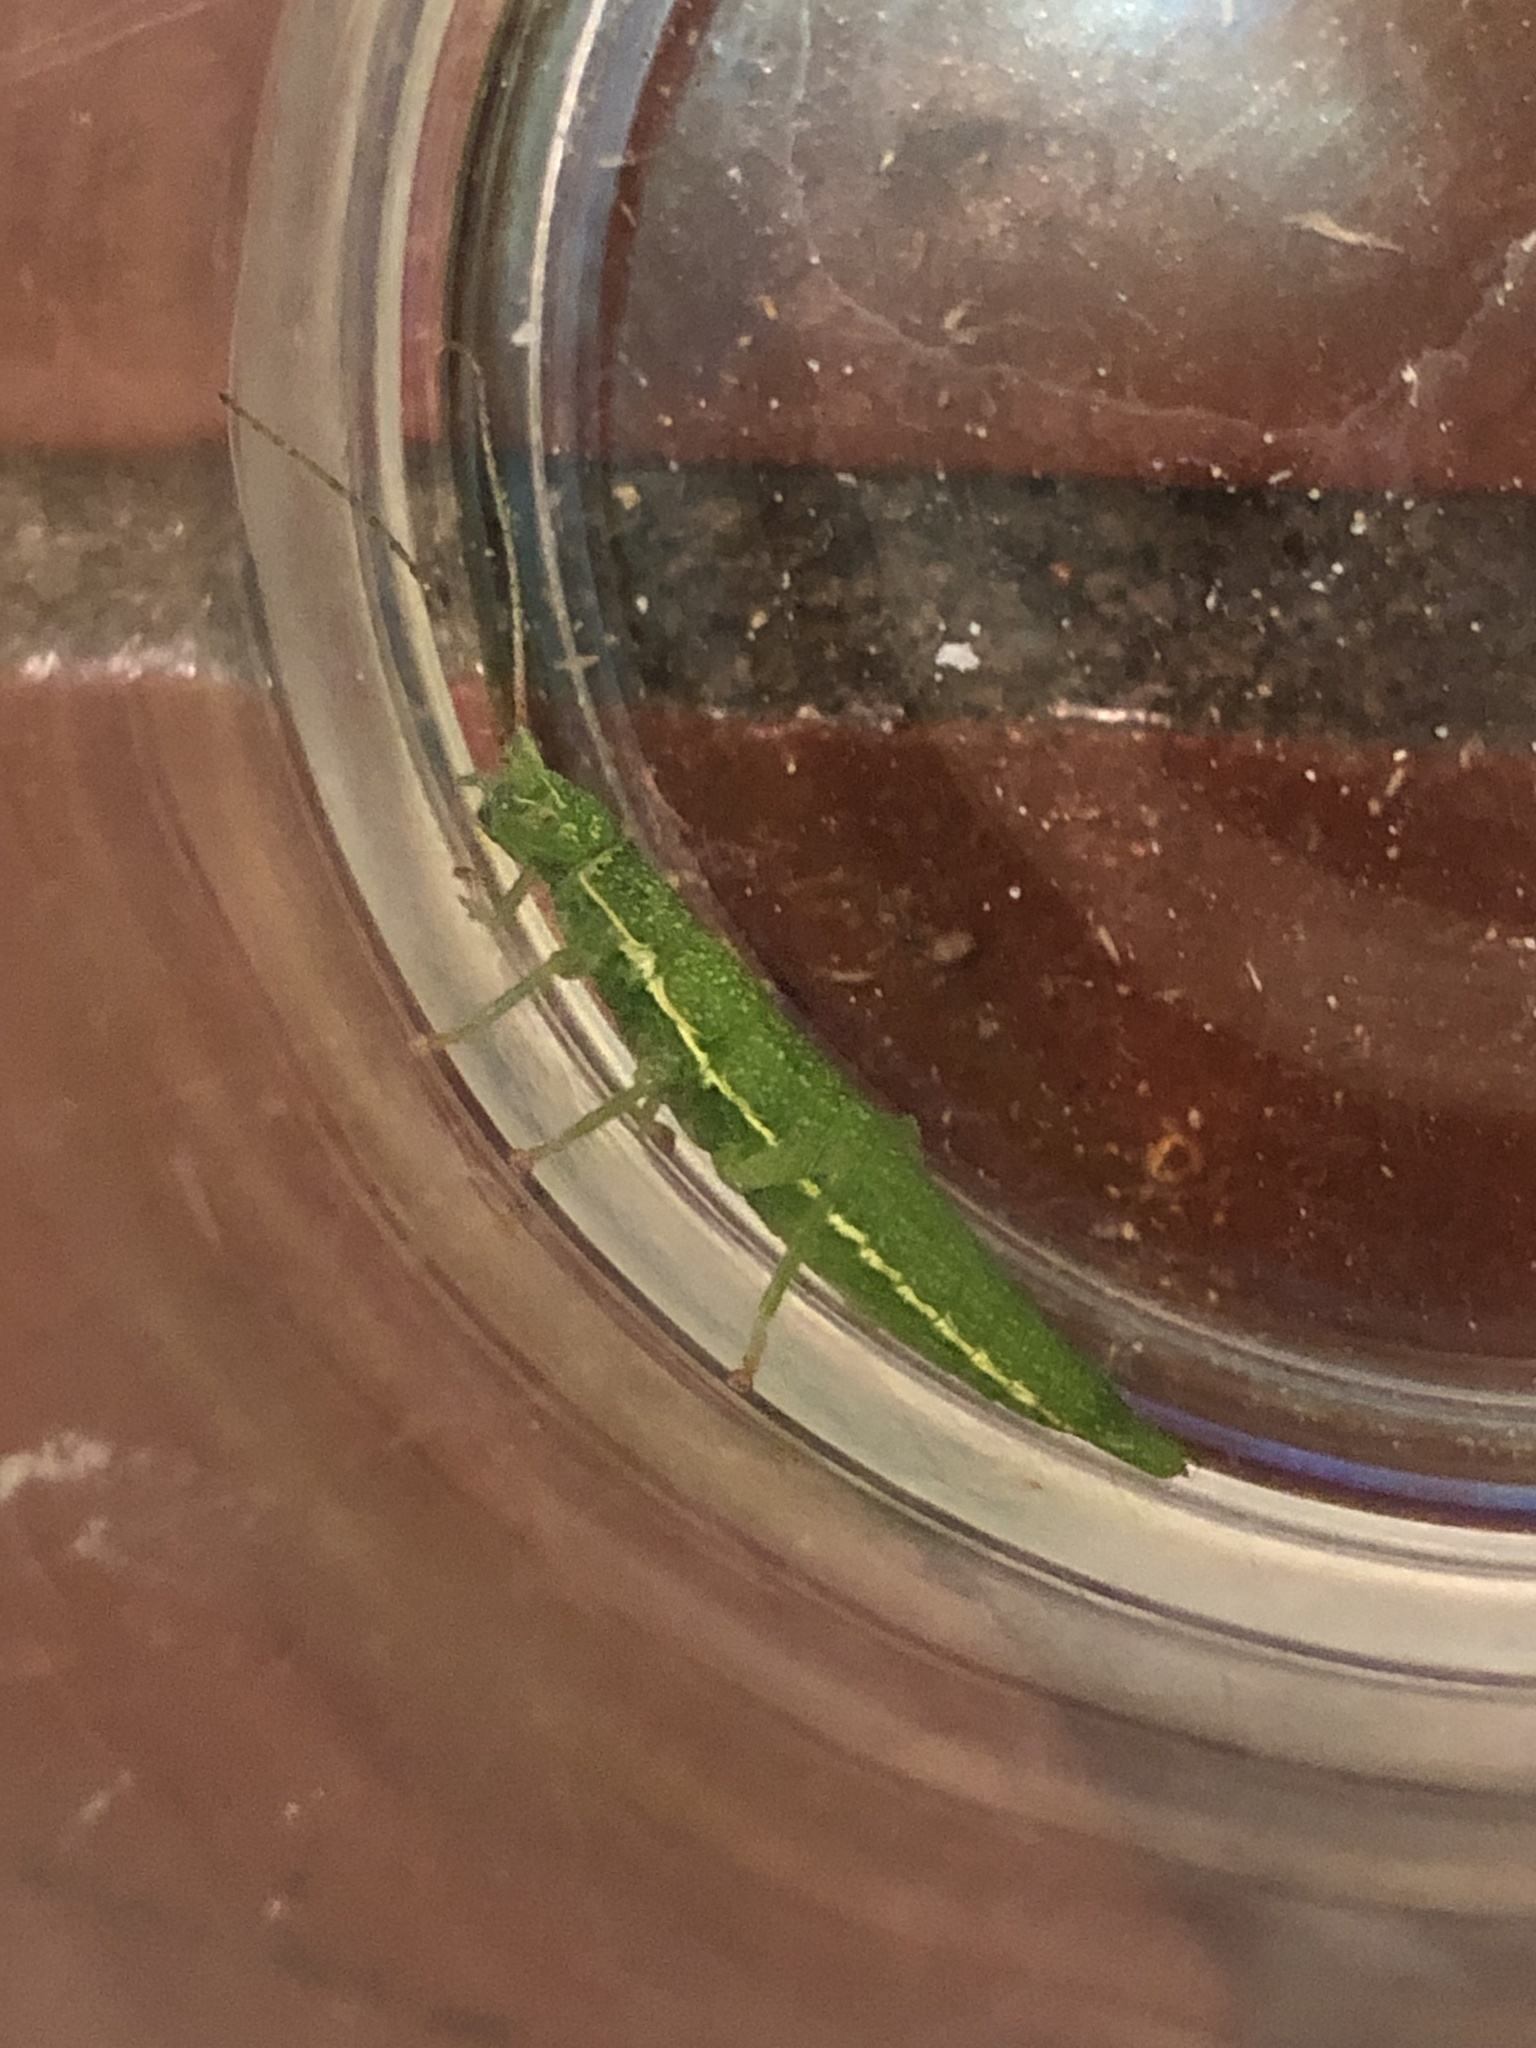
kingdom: Animalia
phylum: Arthropoda
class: Insecta
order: Phasmida
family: Timematidae
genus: Timema
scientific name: Timema californicum
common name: California timema
